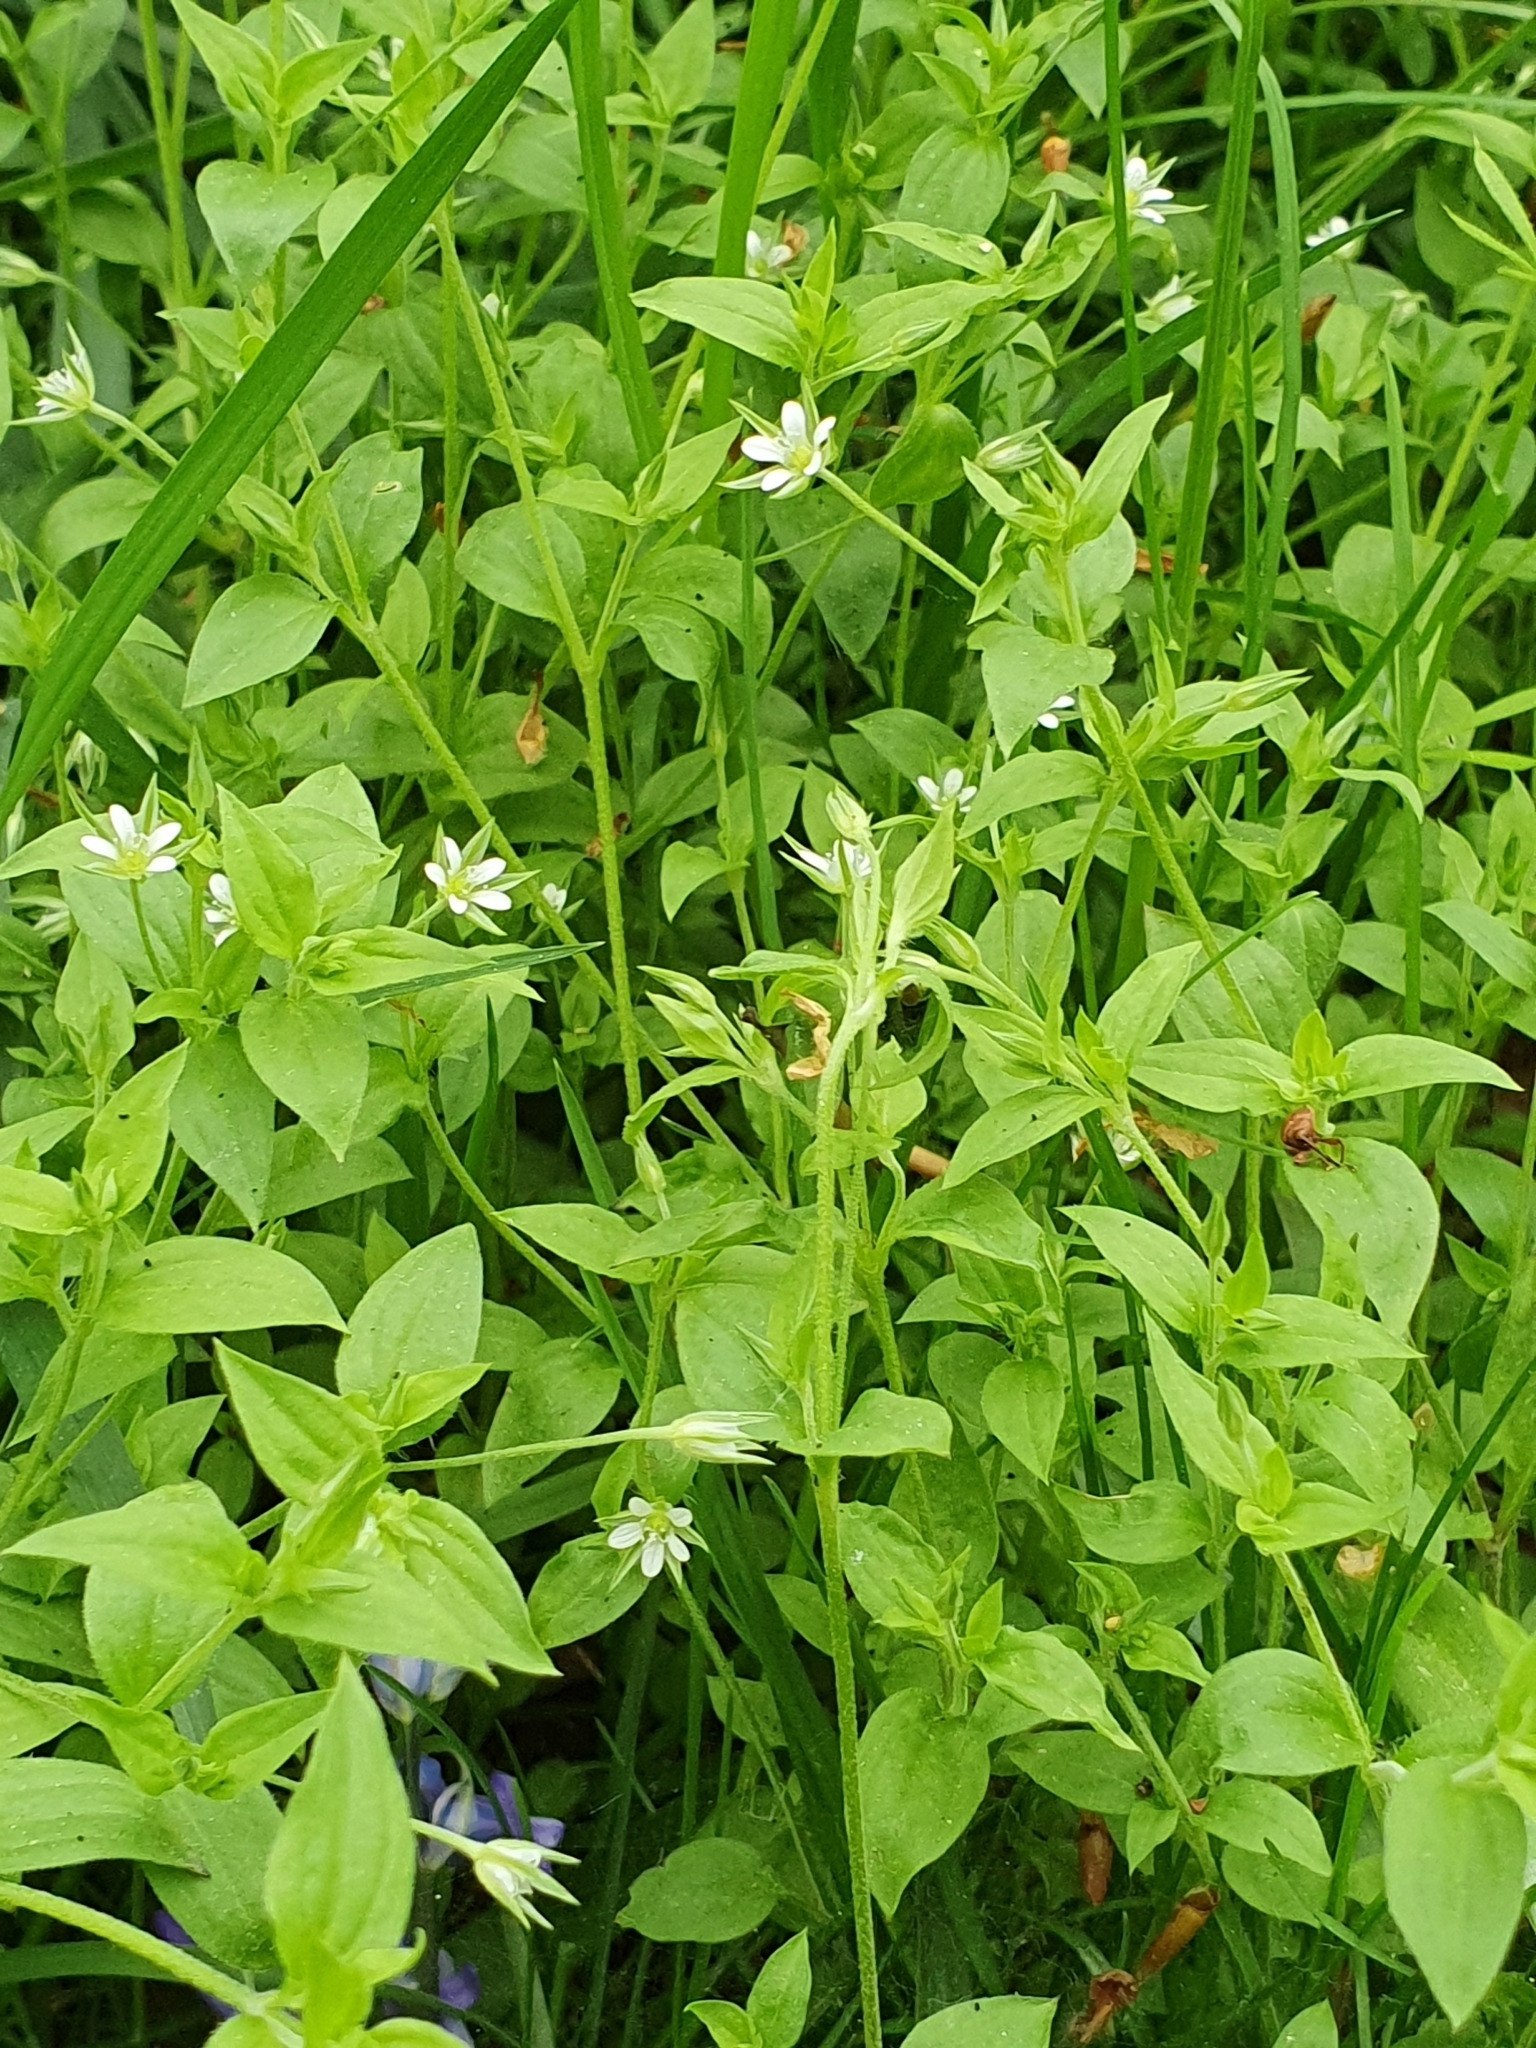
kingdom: Plantae
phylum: Tracheophyta
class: Magnoliopsida
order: Caryophyllales
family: Caryophyllaceae
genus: Stellaria
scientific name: Stellaria media
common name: Common chickweed
